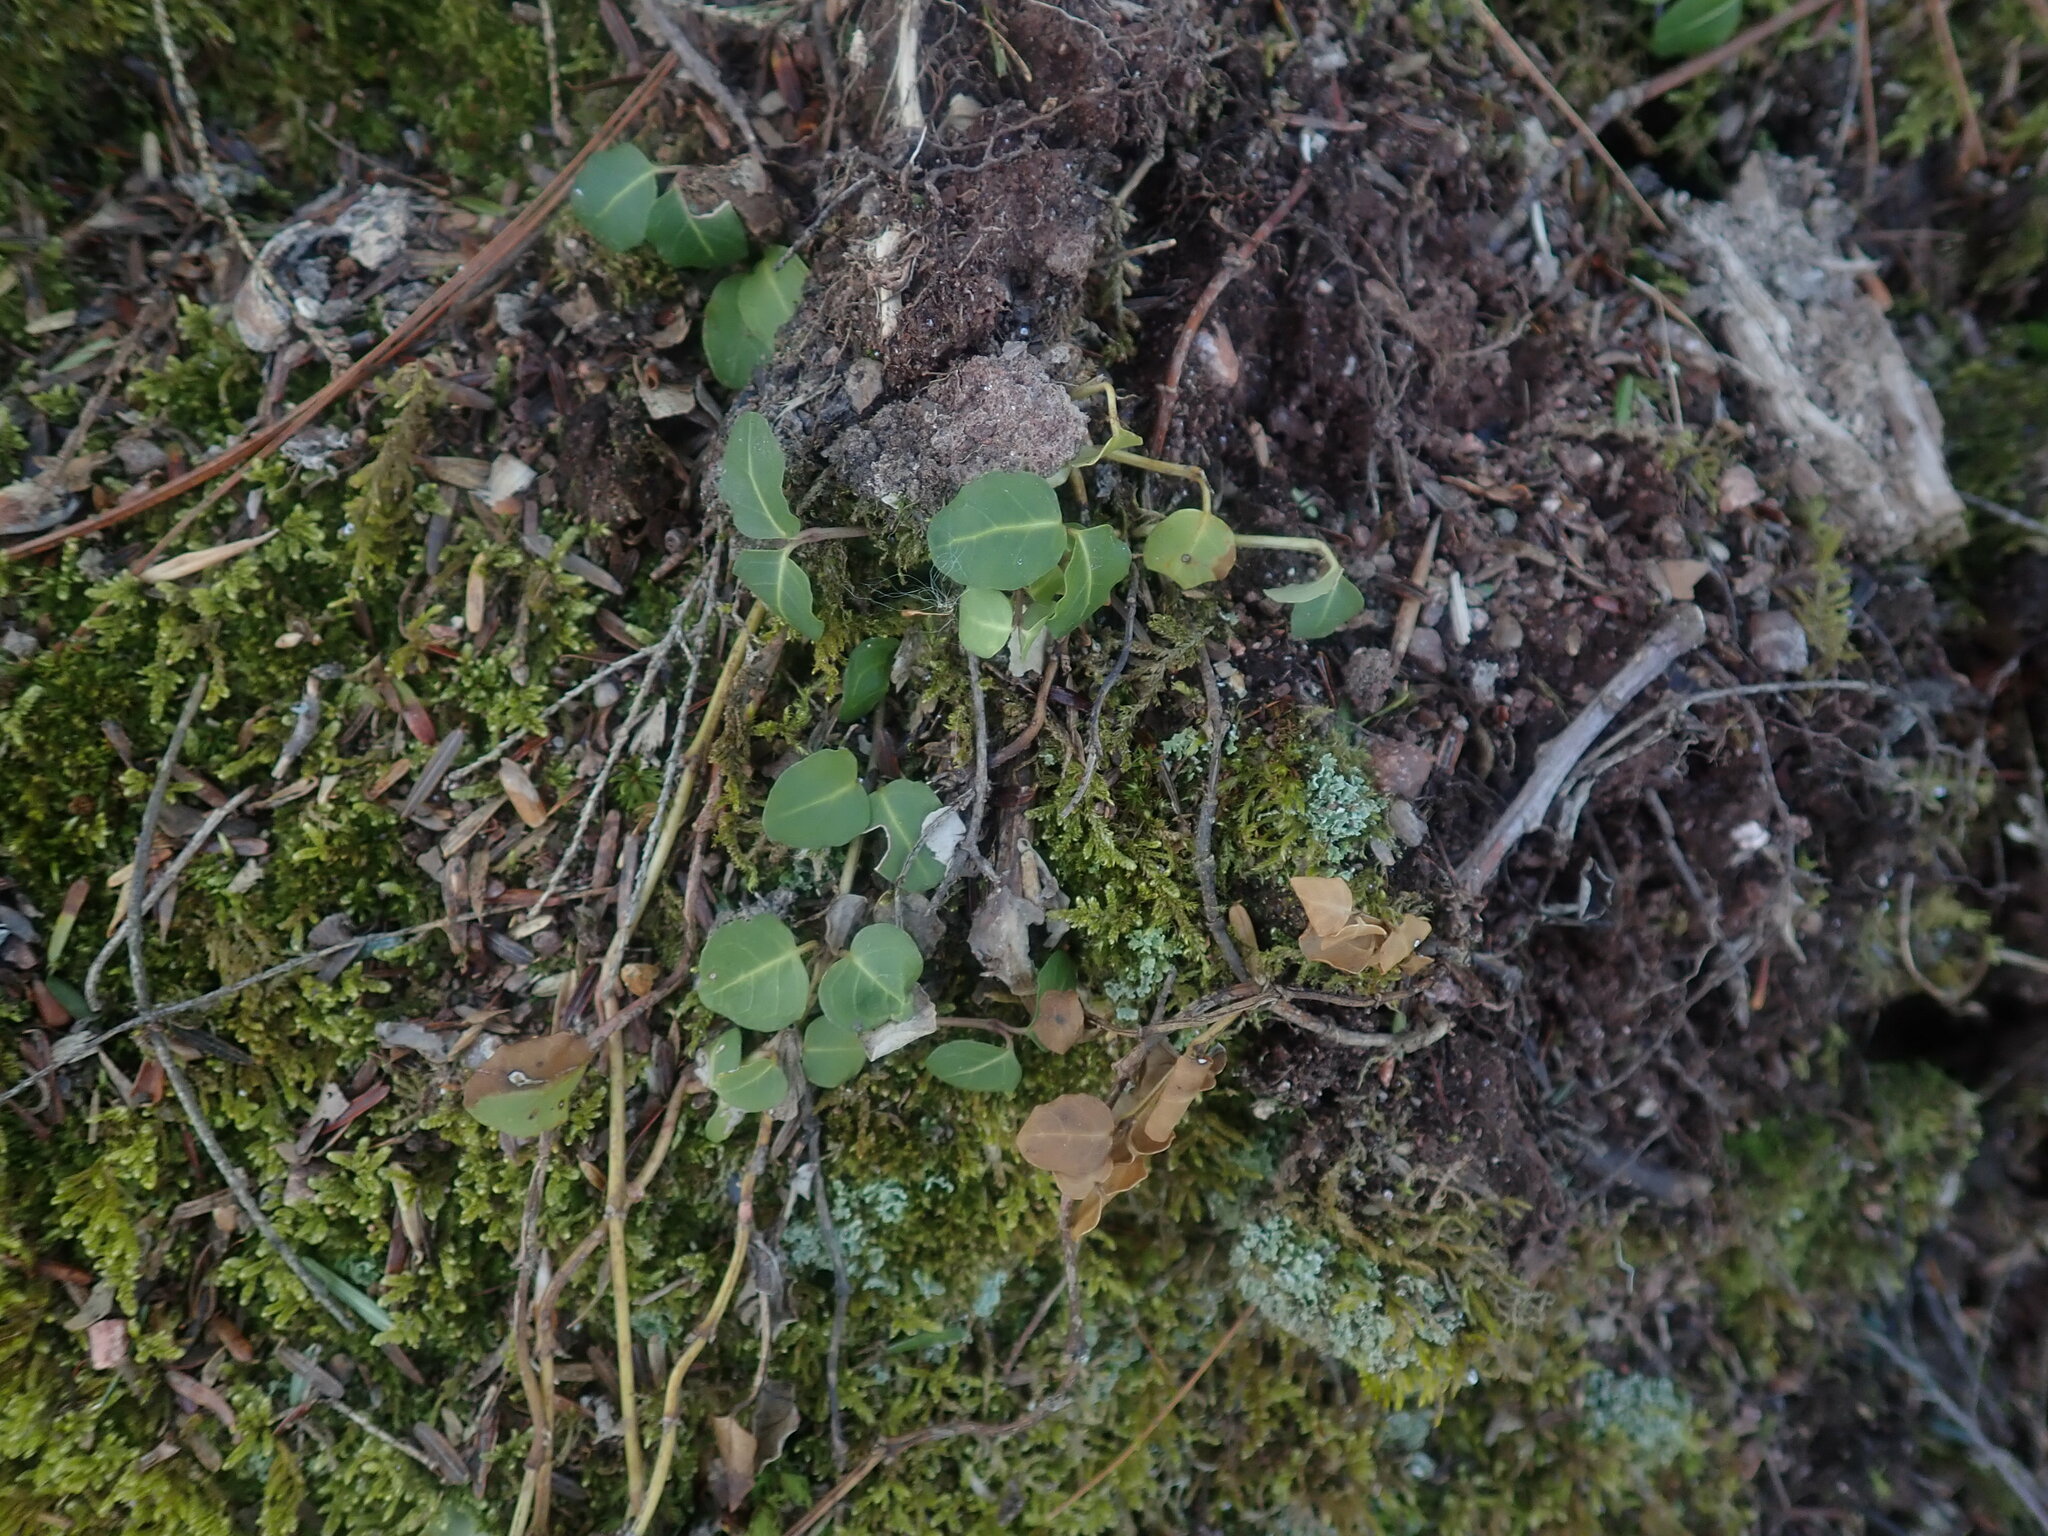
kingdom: Plantae
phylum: Tracheophyta
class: Magnoliopsida
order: Gentianales
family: Rubiaceae
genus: Mitchella
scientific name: Mitchella repens
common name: Partridge-berry
